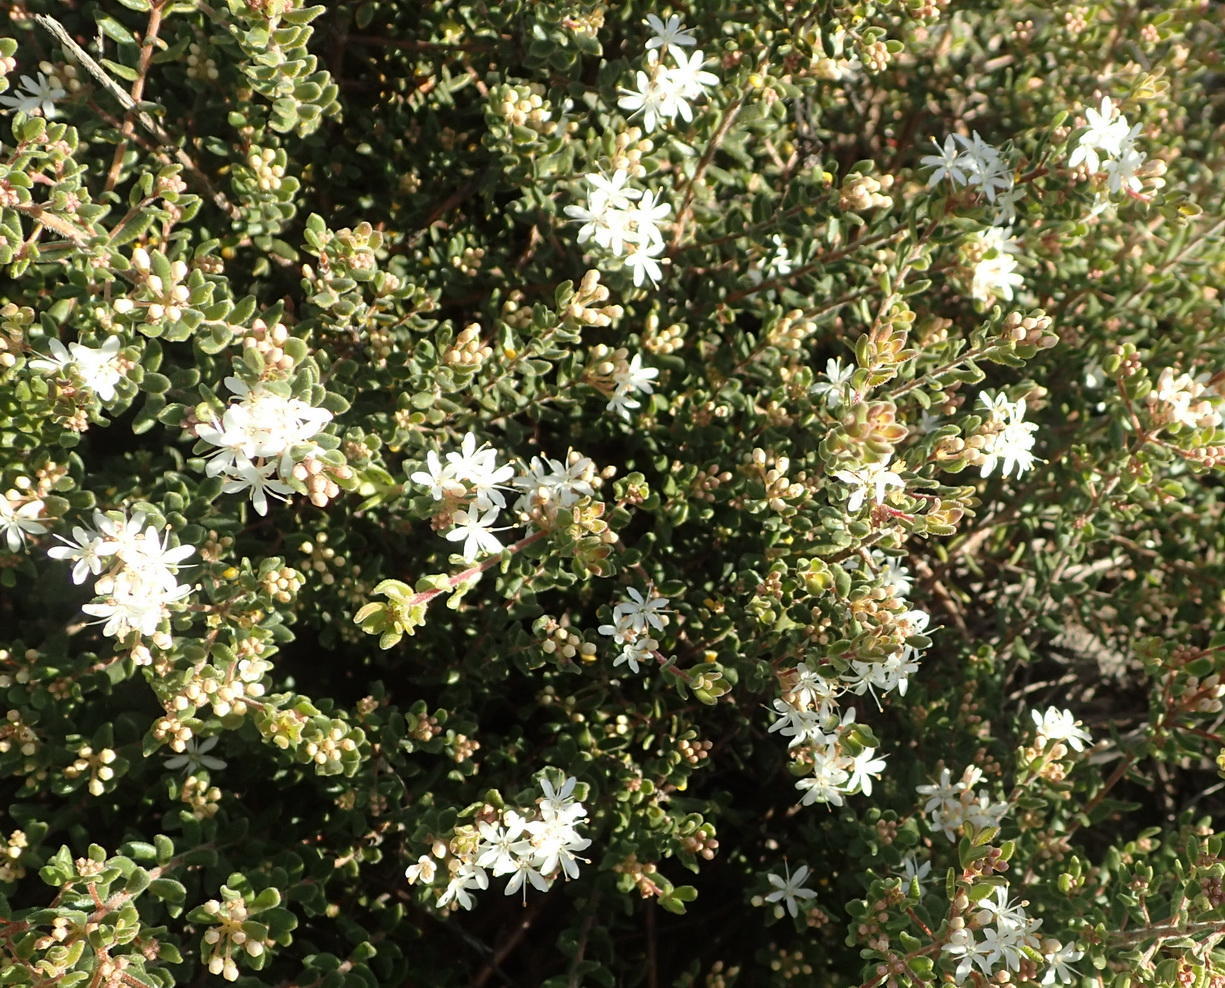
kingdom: Plantae
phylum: Tracheophyta
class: Magnoliopsida
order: Sapindales
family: Rutaceae
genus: Agathosma
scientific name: Agathosma mundtii
